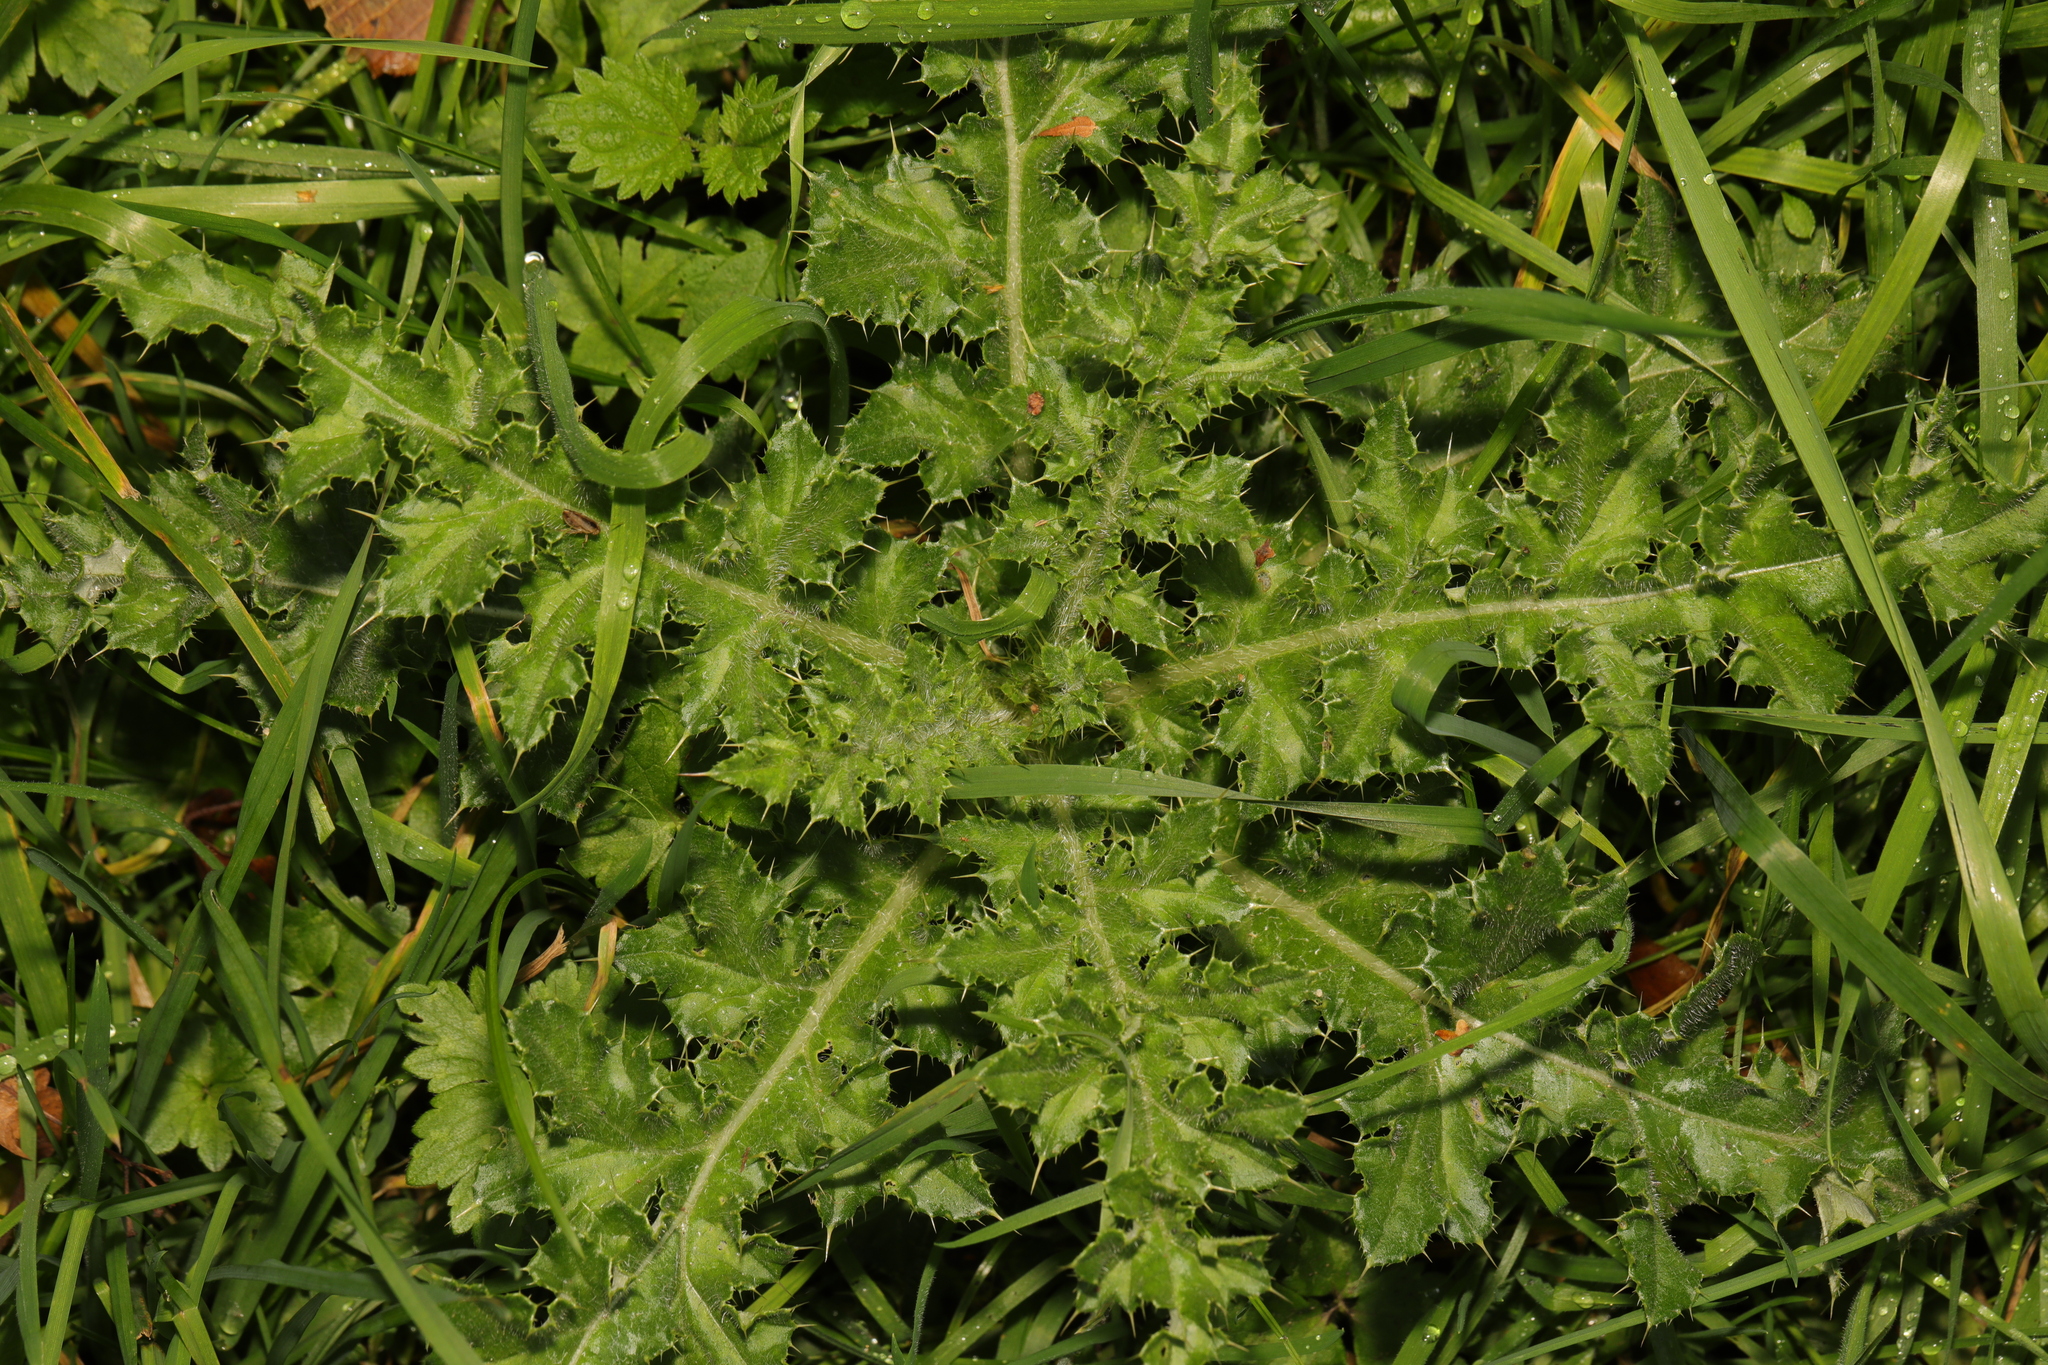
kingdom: Plantae
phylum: Tracheophyta
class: Magnoliopsida
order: Asterales
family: Asteraceae
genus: Cirsium
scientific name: Cirsium arvense
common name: Creeping thistle
